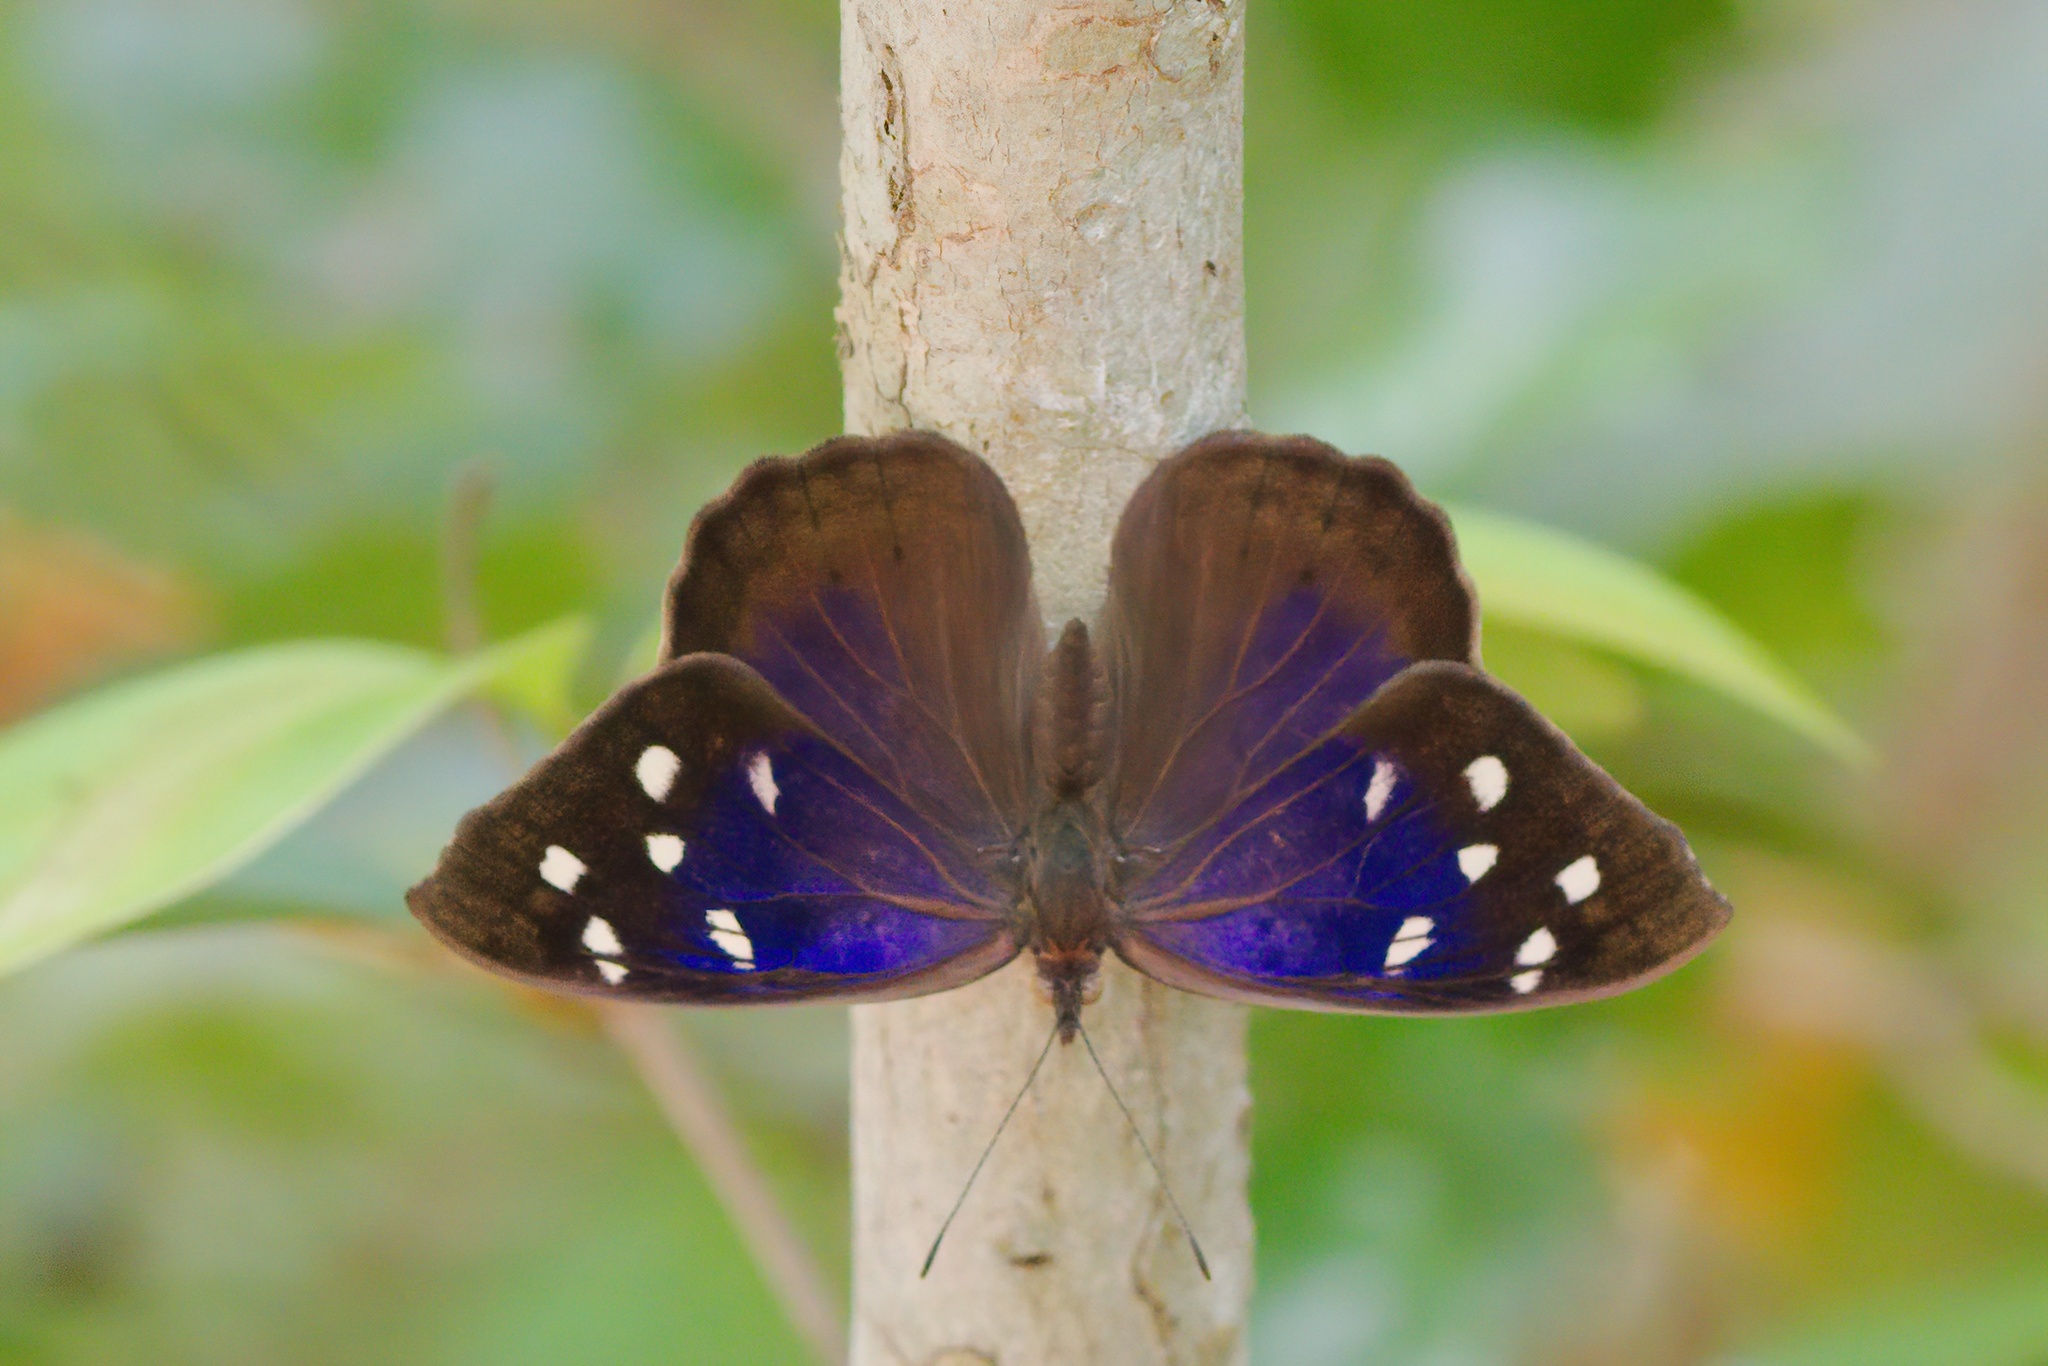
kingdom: Animalia
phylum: Arthropoda
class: Insecta
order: Lepidoptera
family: Nymphalidae
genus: Eunica
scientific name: Eunica tatila
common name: Florida purplewing
